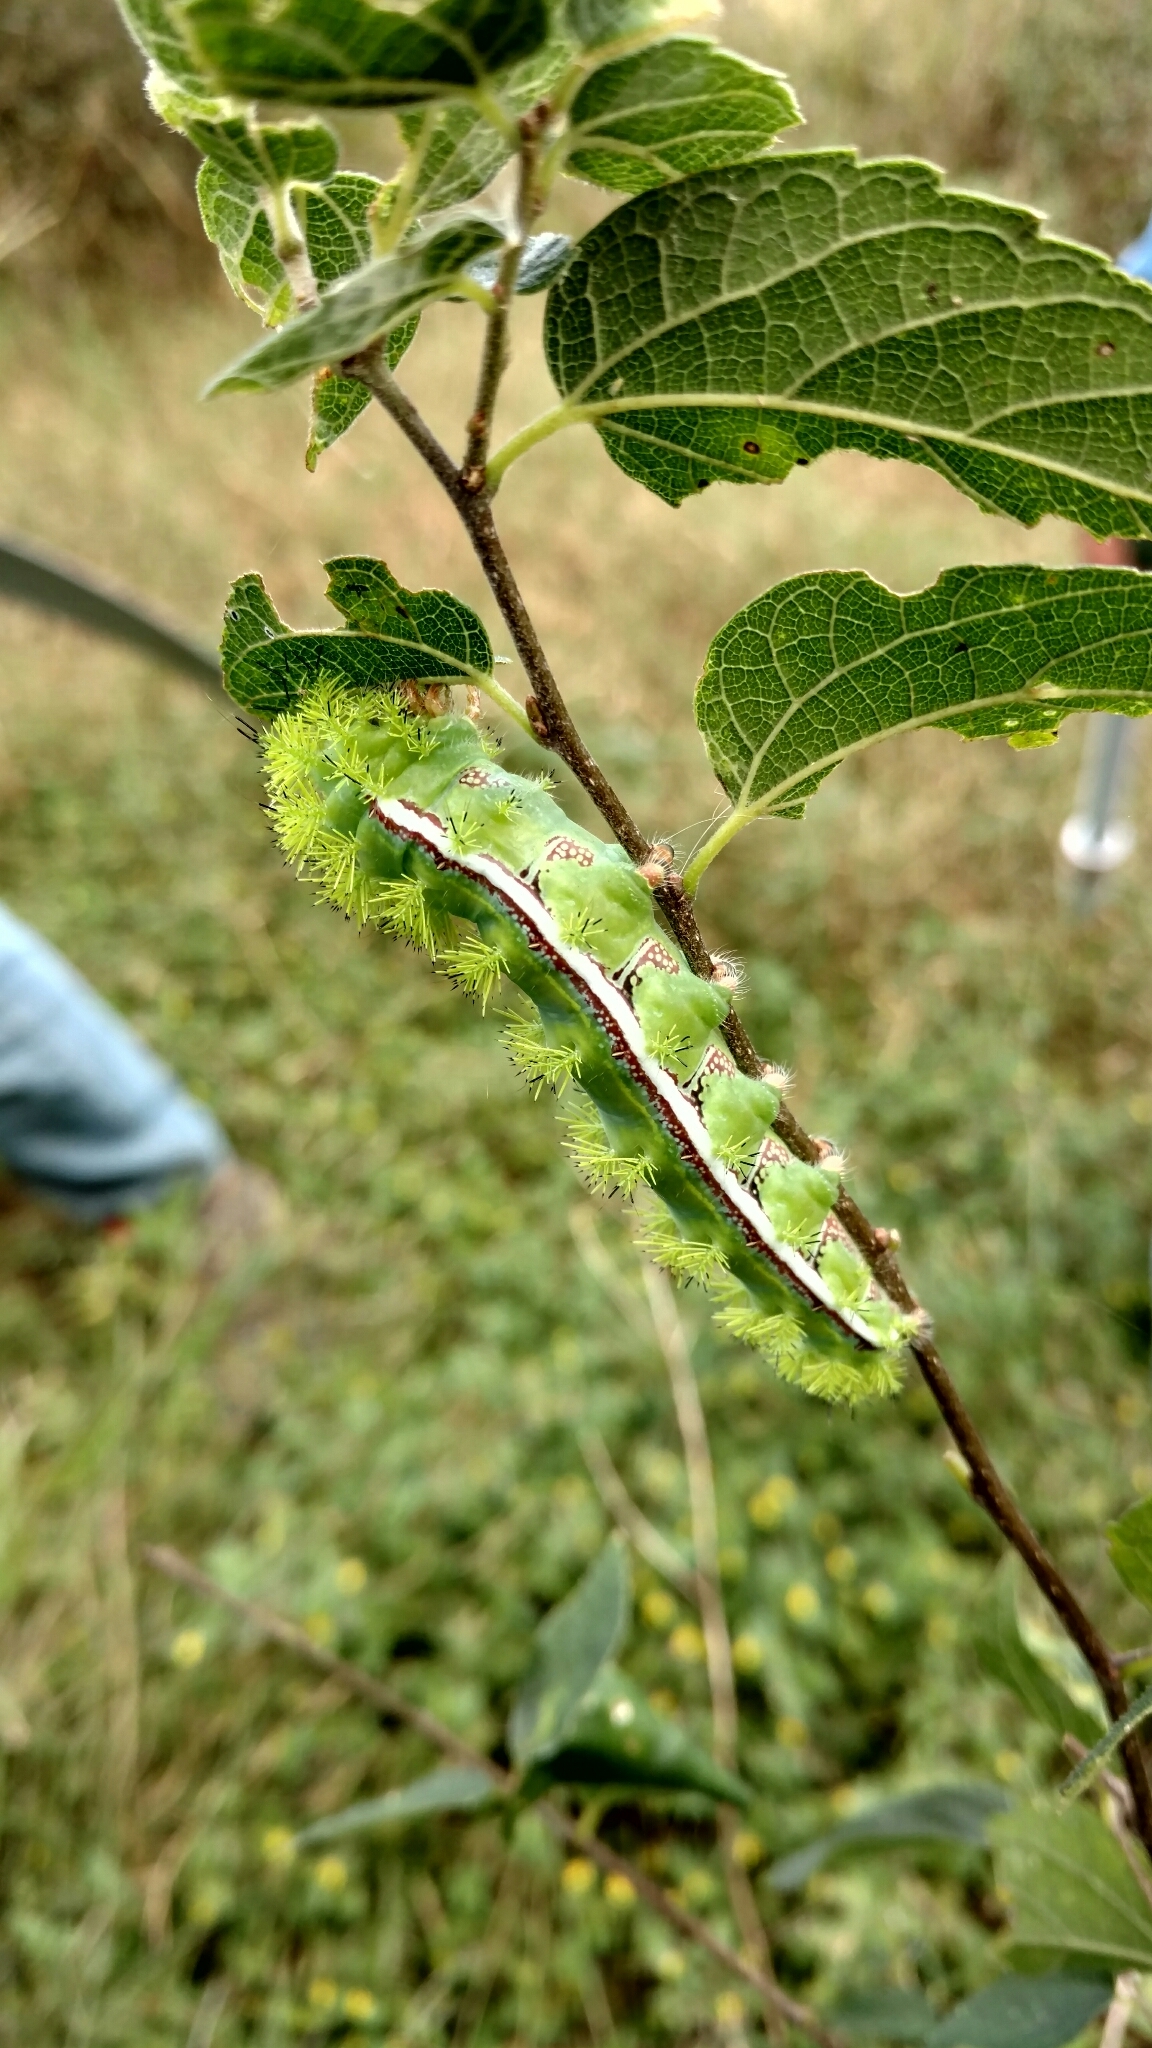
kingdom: Animalia
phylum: Arthropoda
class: Insecta
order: Lepidoptera
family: Saturniidae
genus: Automeris
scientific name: Automeris io
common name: Io moth
